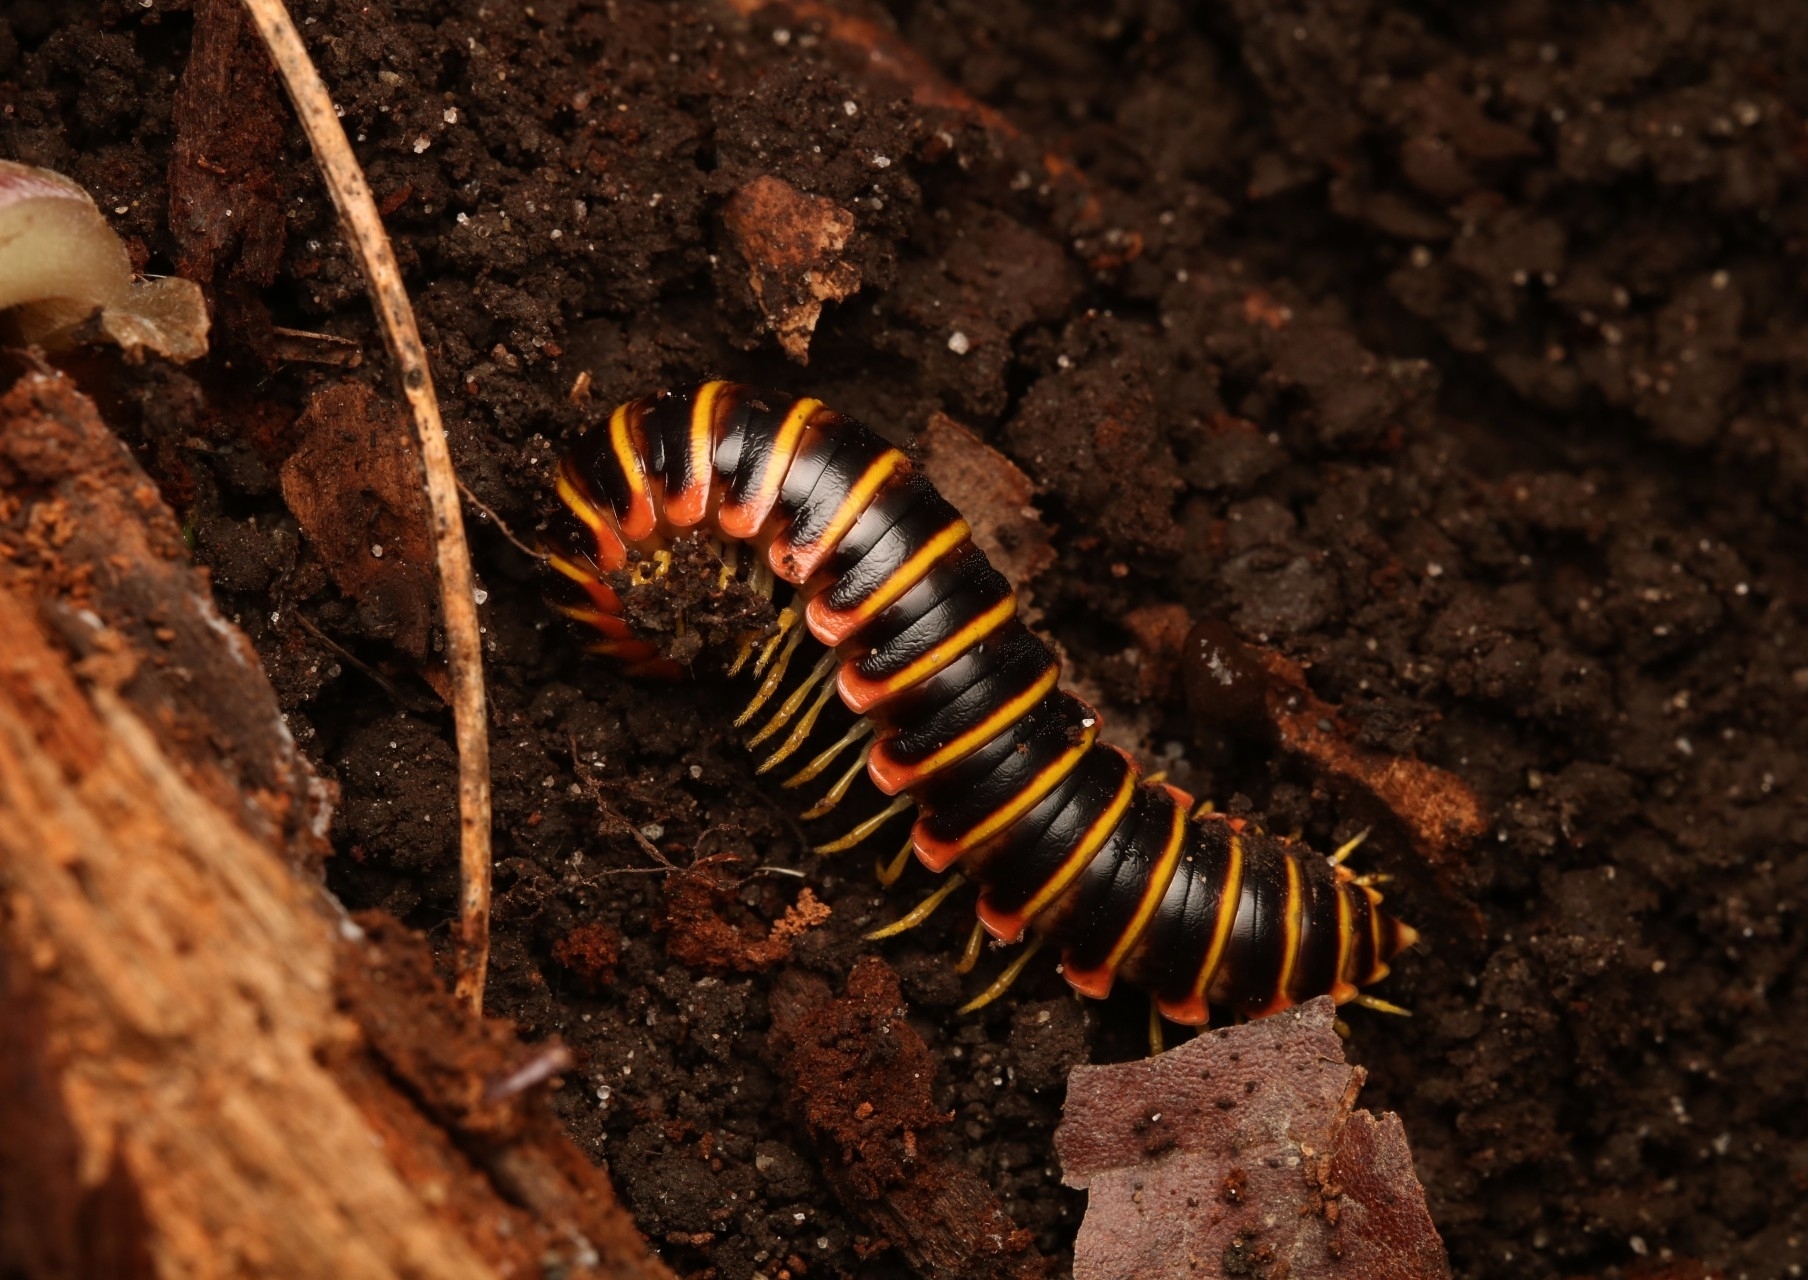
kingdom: Animalia
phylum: Arthropoda
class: Diplopoda
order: Polydesmida
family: Xystodesmidae
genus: Apheloria
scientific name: Apheloria virginiensis
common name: Black-and-gold flat millipede
